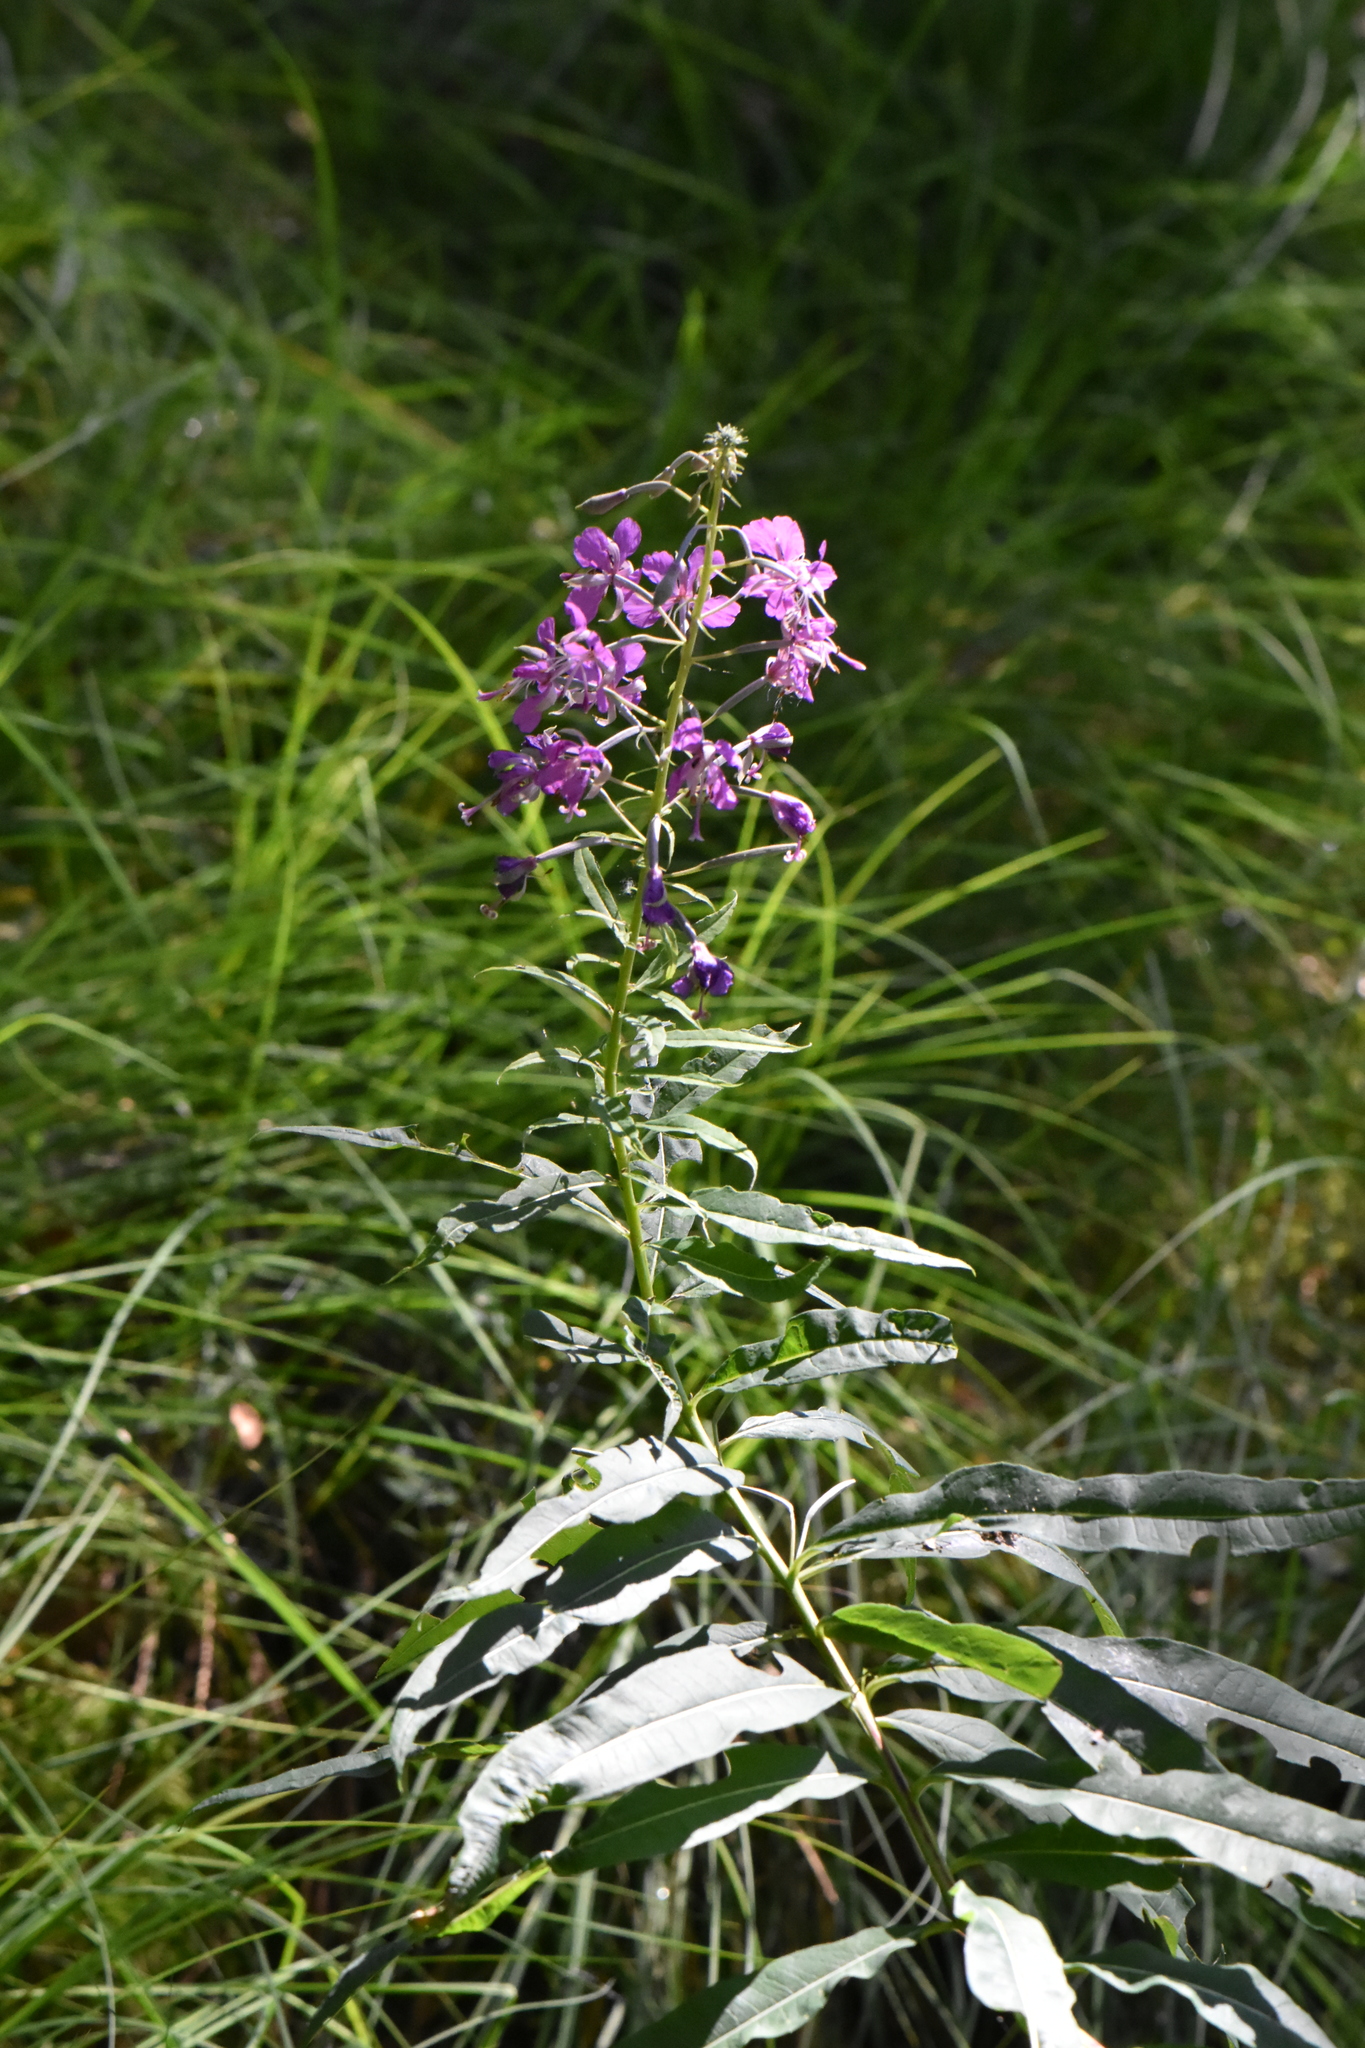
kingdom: Plantae
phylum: Tracheophyta
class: Magnoliopsida
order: Myrtales
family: Onagraceae
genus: Chamaenerion
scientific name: Chamaenerion angustifolium
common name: Fireweed
